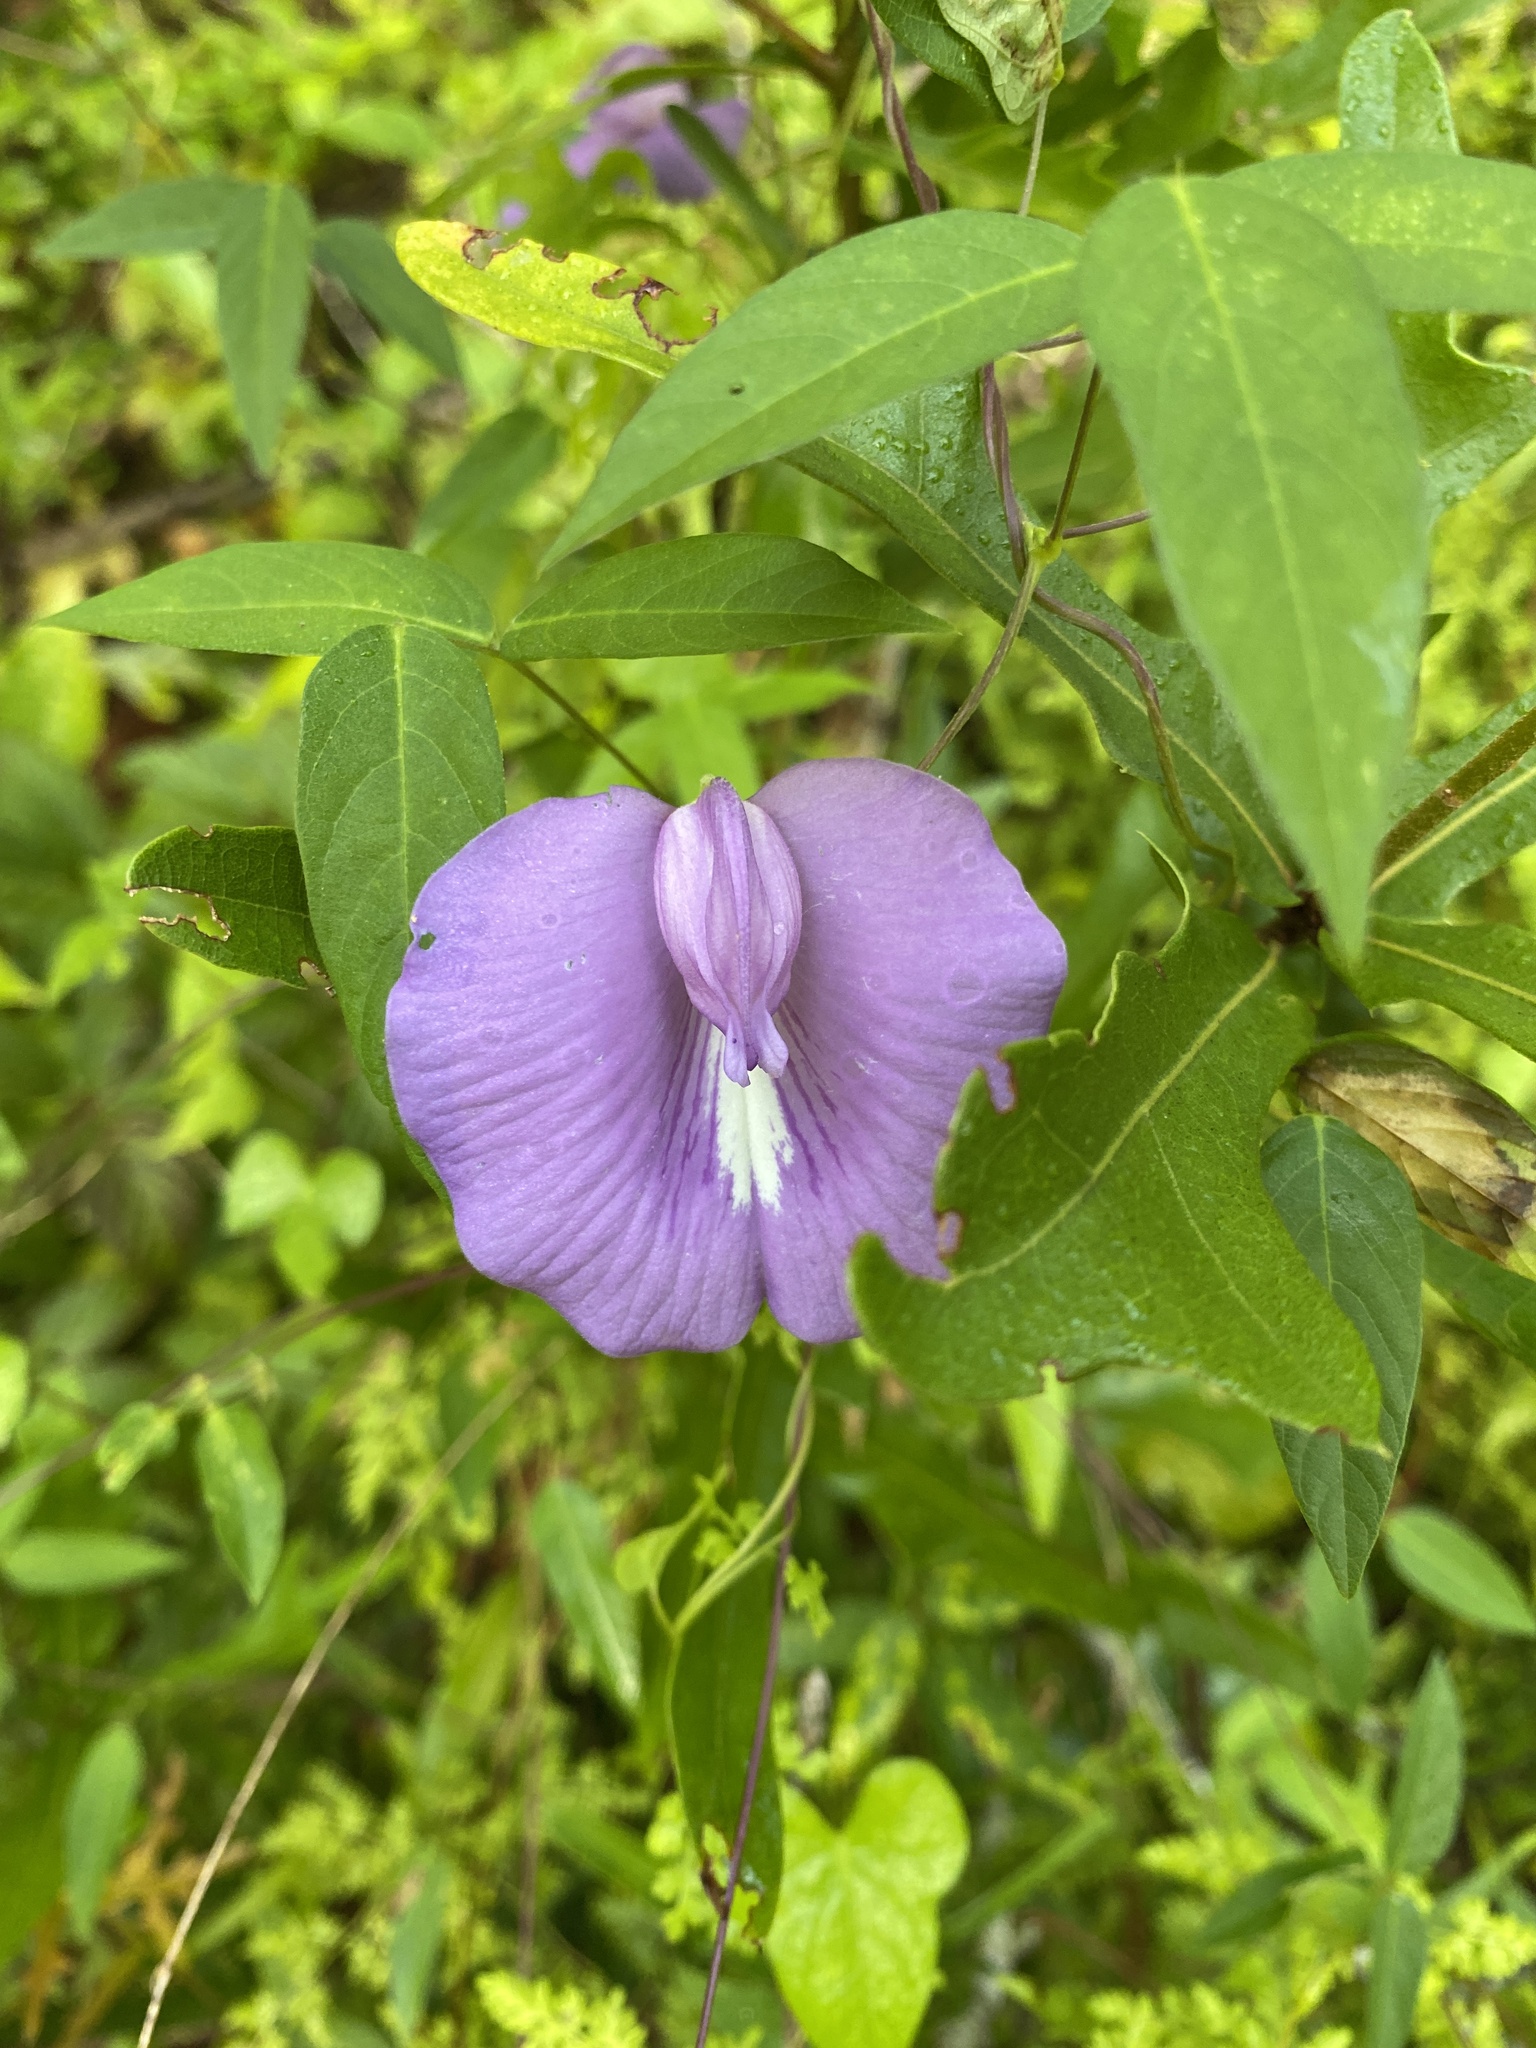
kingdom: Plantae
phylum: Tracheophyta
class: Magnoliopsida
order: Fabales
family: Fabaceae
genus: Centrosema
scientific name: Centrosema virginianum
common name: Butterfly-pea
